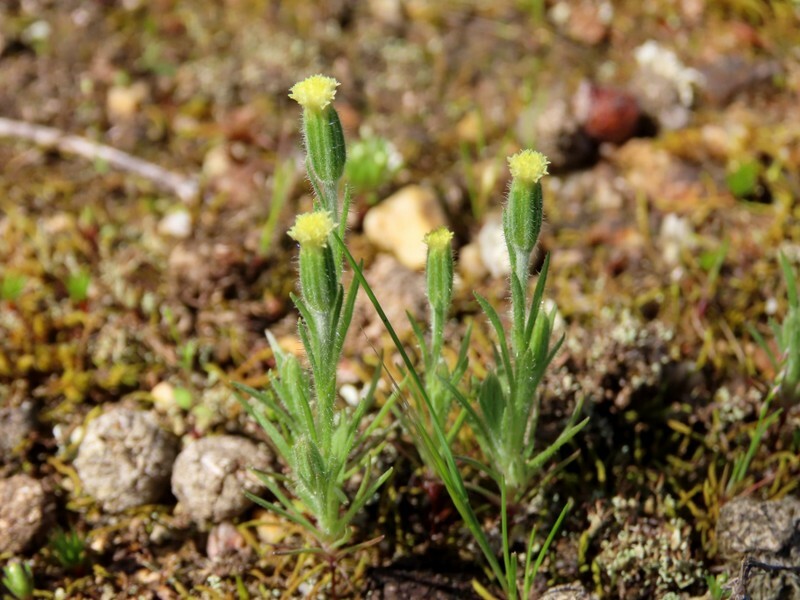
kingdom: Plantae
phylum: Tracheophyta
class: Magnoliopsida
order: Asterales
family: Asteraceae
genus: Millotia
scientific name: Millotia tenuifolia
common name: Soft millotia
